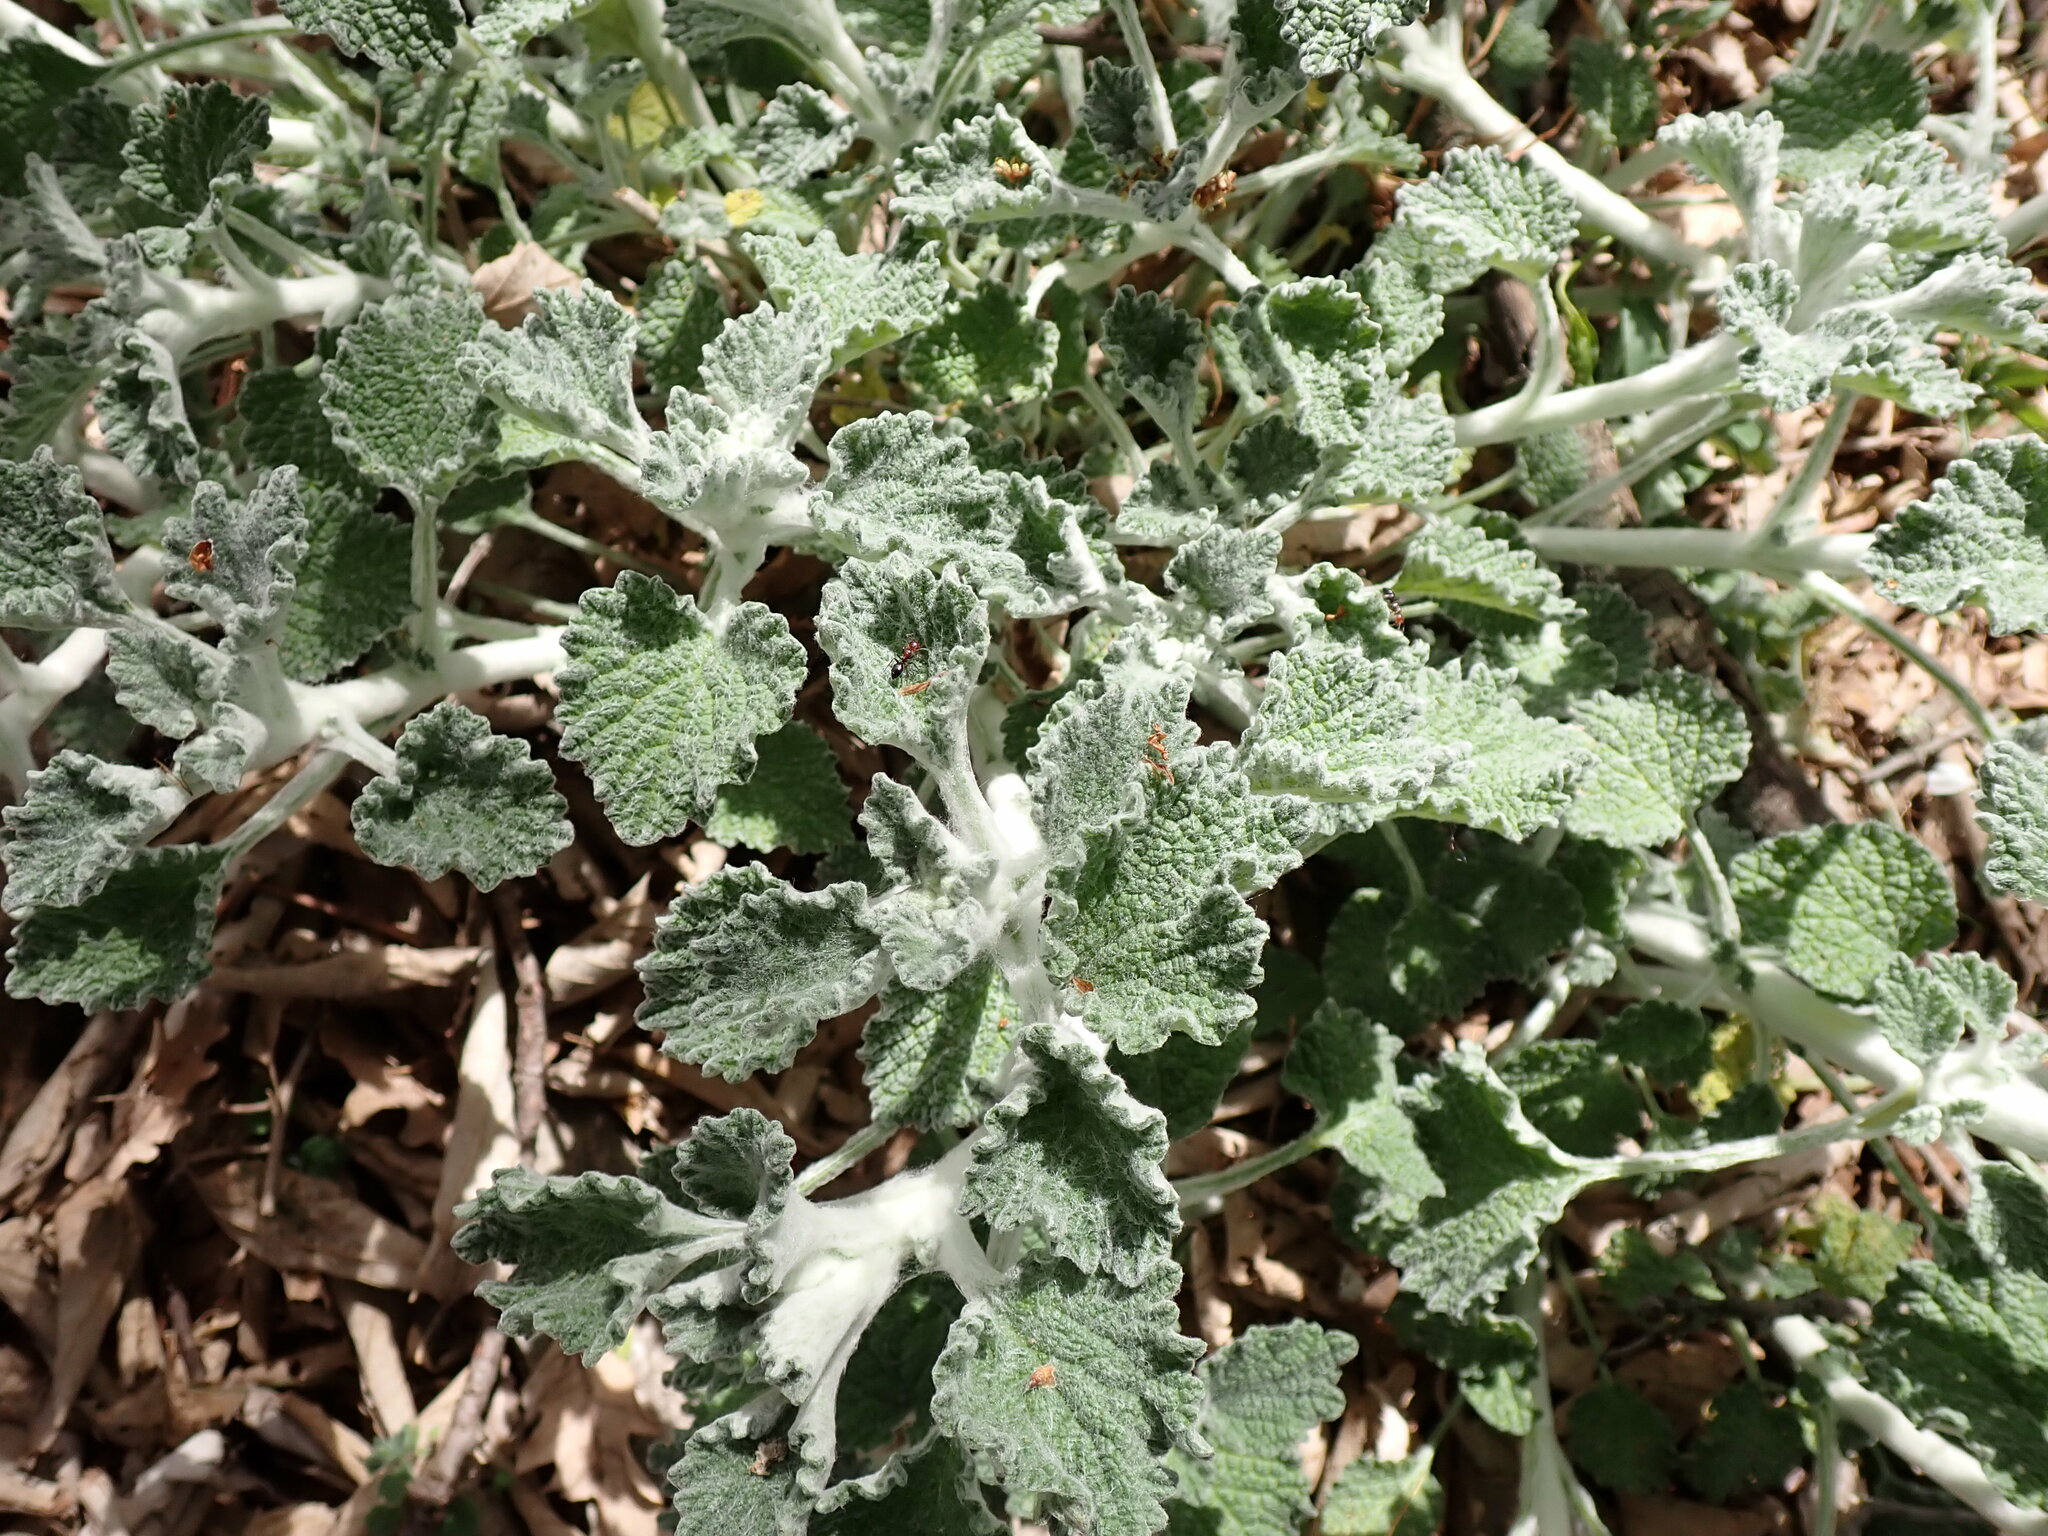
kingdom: Plantae
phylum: Tracheophyta
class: Magnoliopsida
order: Lamiales
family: Lamiaceae
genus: Marrubium
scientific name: Marrubium vulgare
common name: Horehound
